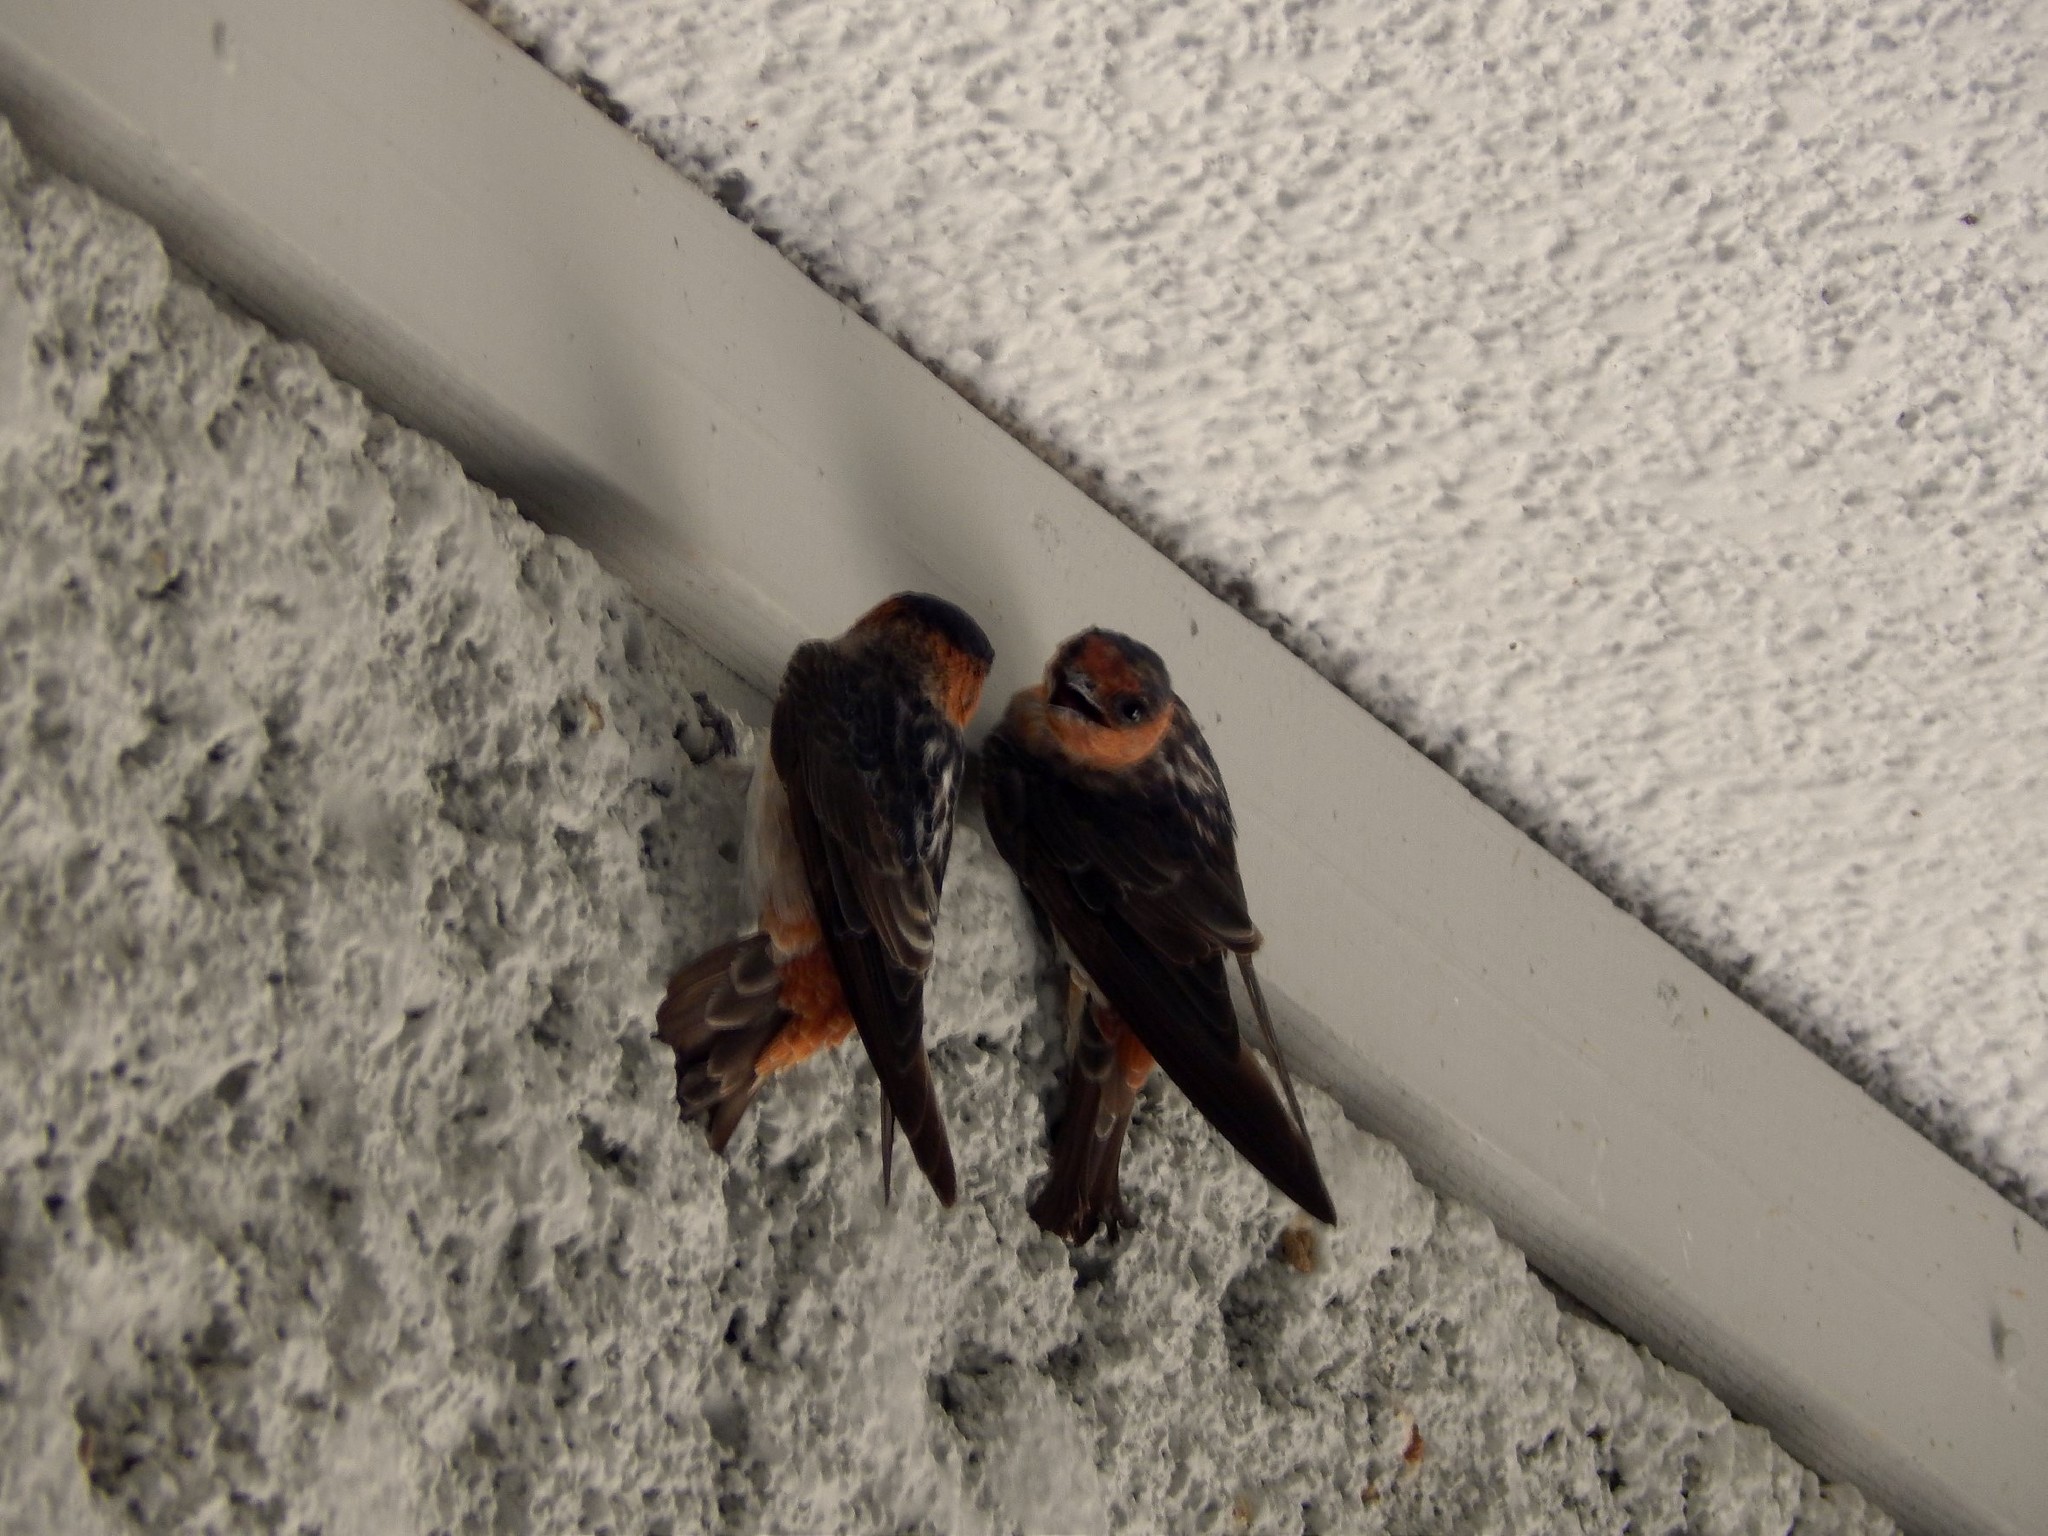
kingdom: Animalia
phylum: Chordata
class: Aves
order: Passeriformes
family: Hirundinidae
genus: Petrochelidon
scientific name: Petrochelidon fulva
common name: Cave swallow
